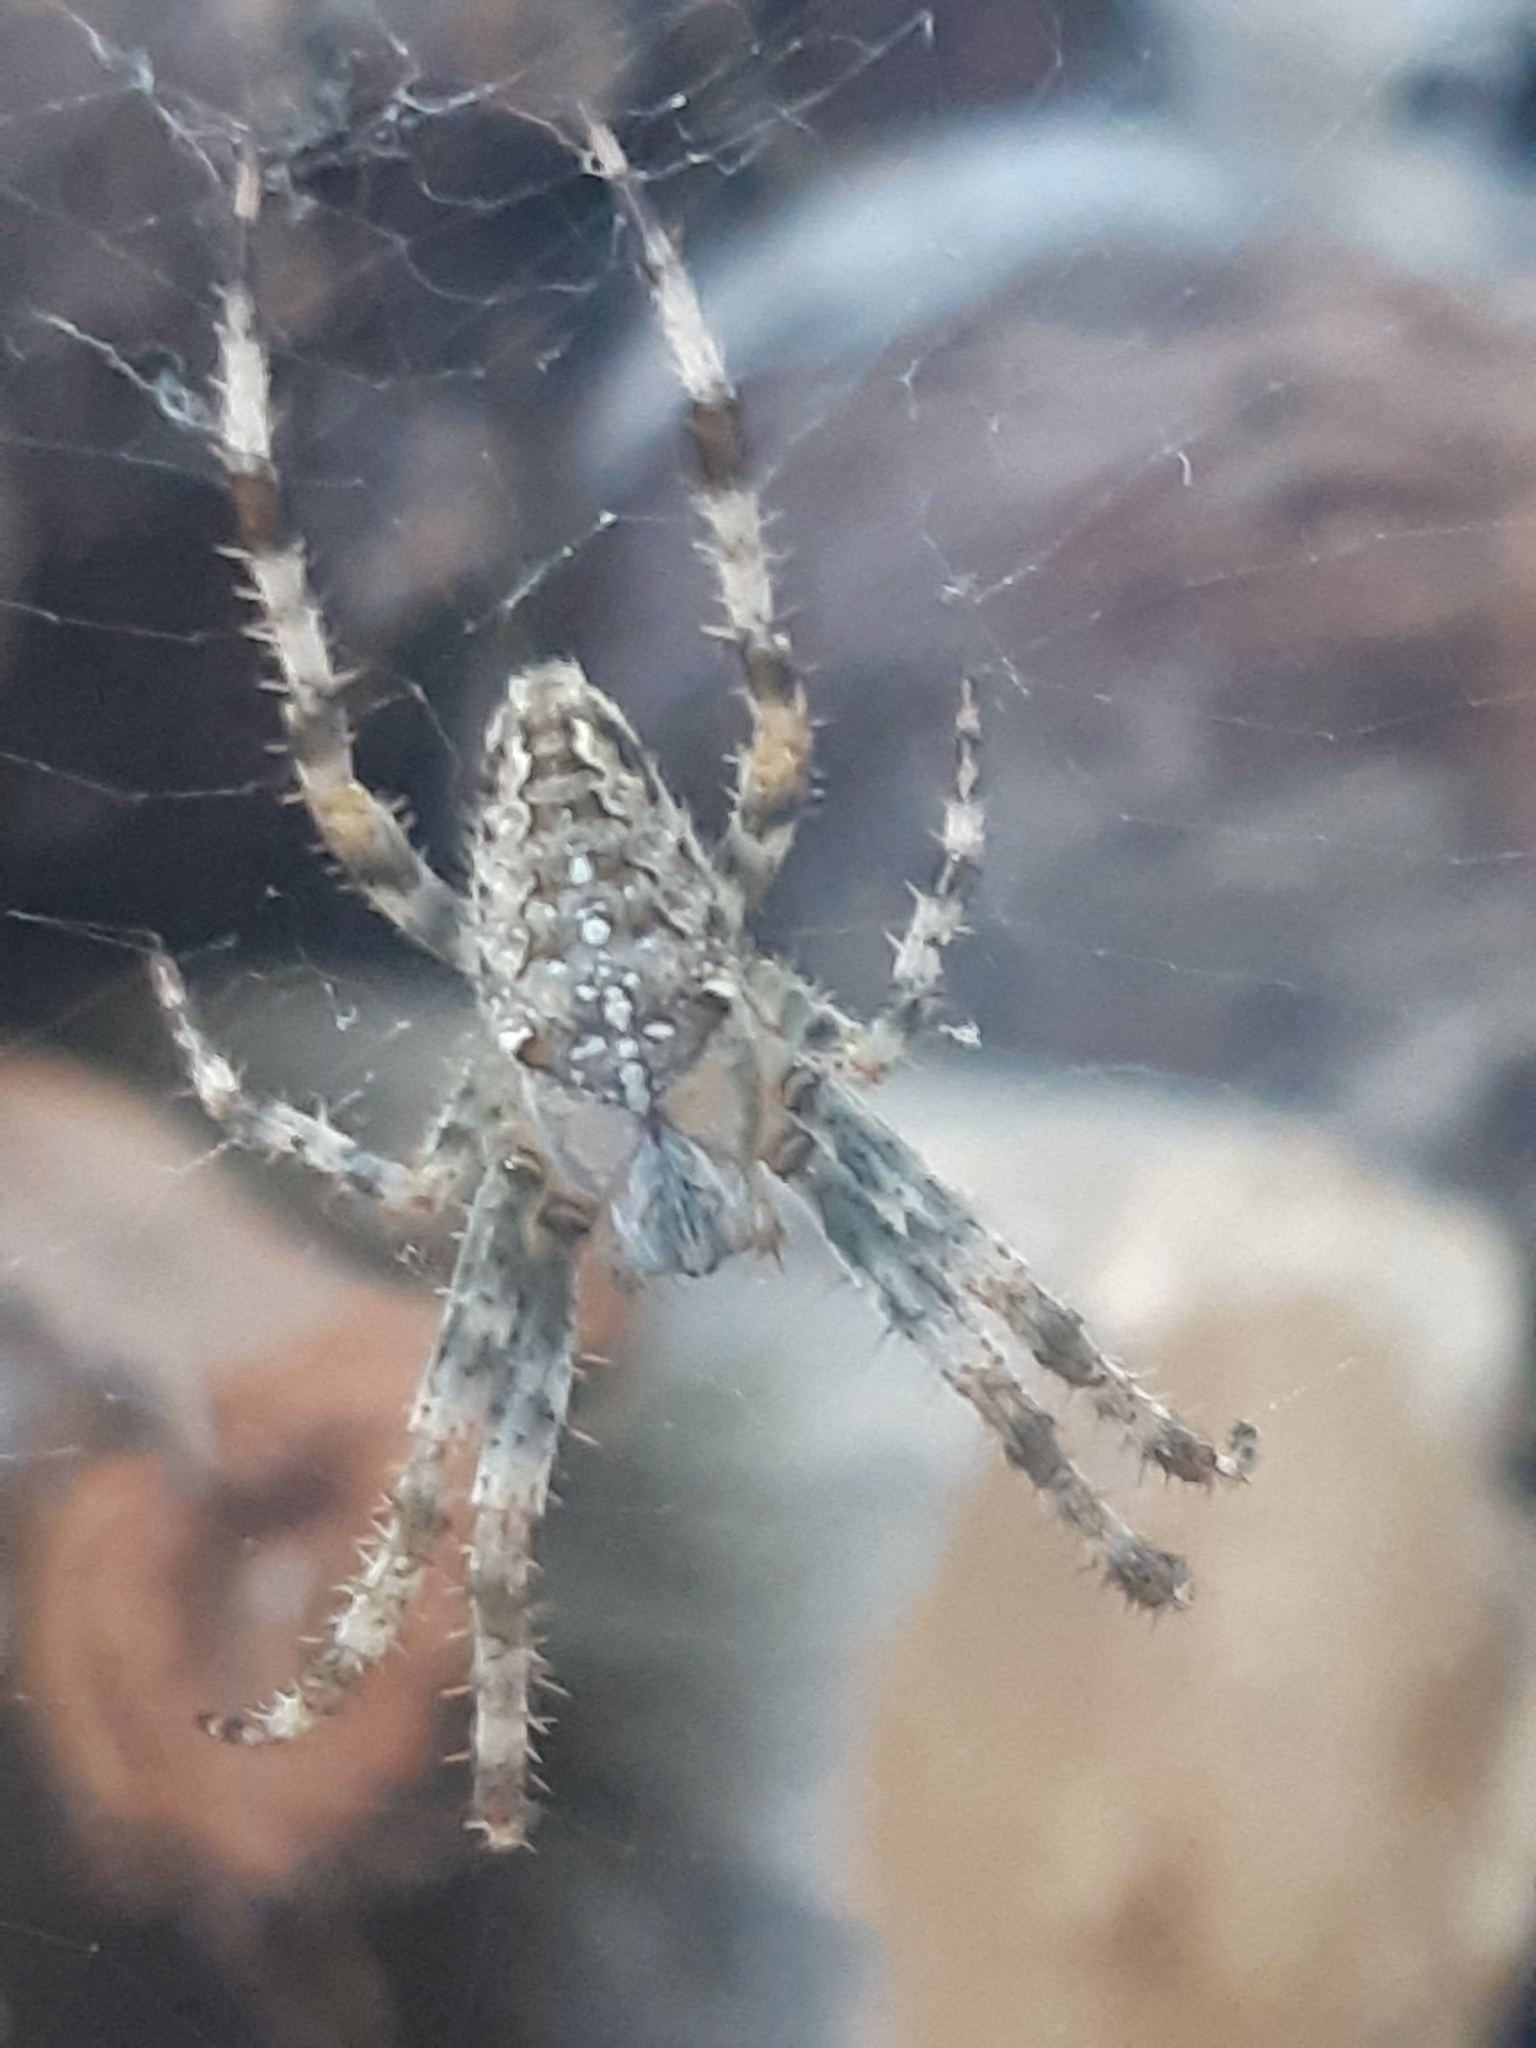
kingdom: Animalia
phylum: Arthropoda
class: Arachnida
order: Araneae
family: Araneidae
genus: Araneus
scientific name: Araneus diadematus
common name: Cross orbweaver
